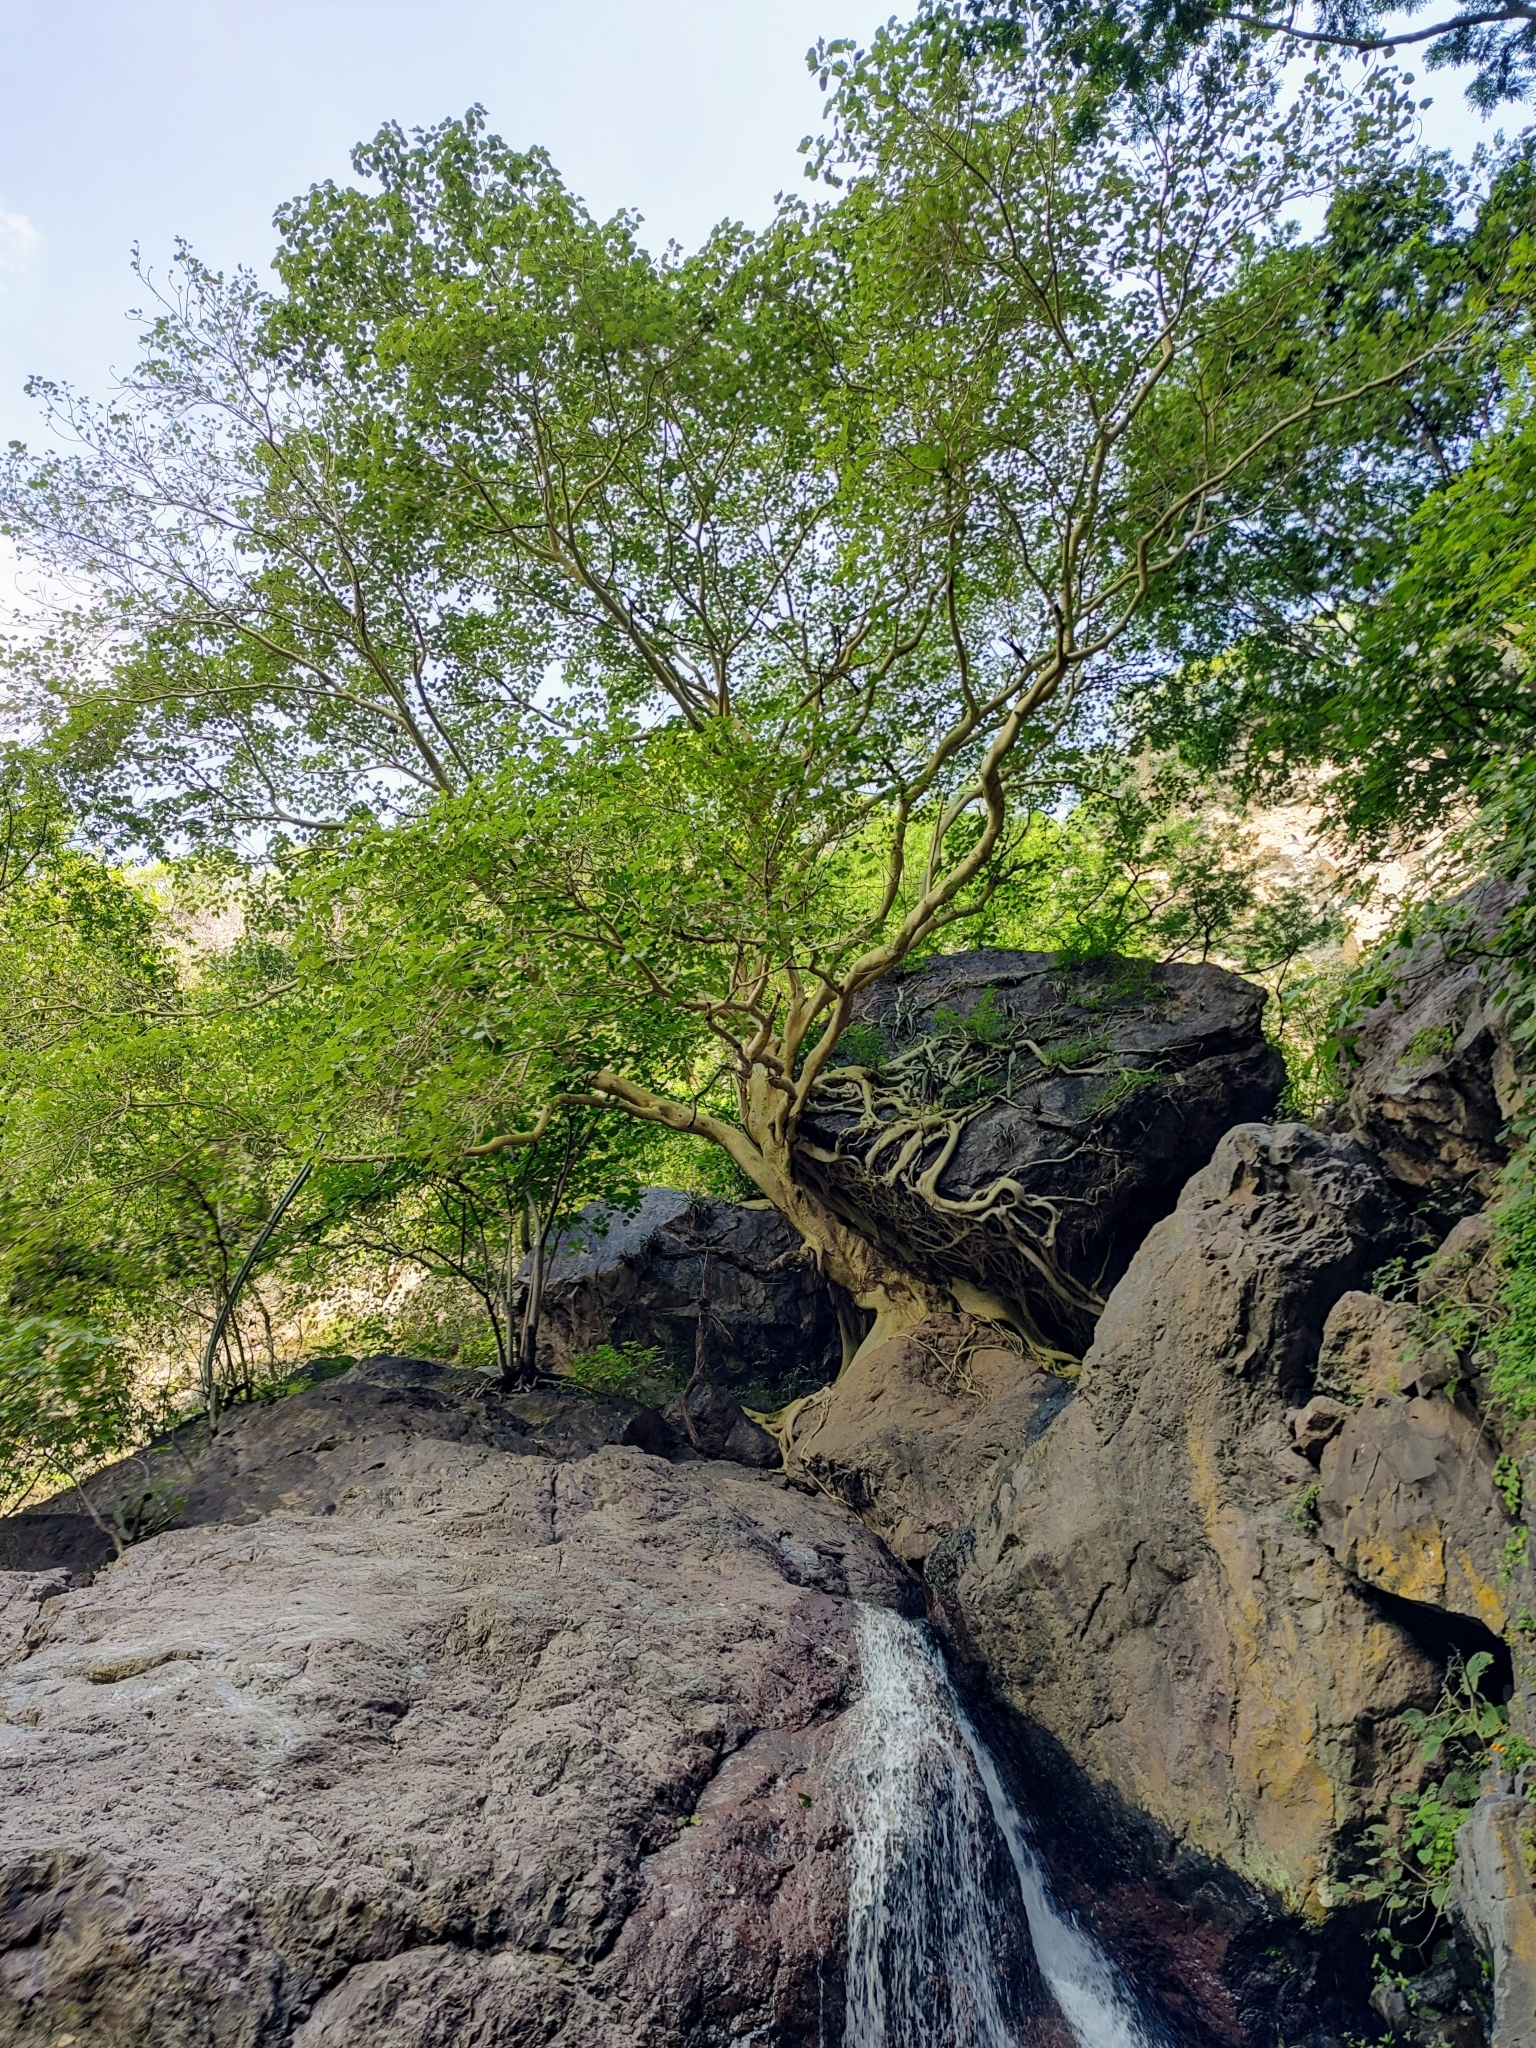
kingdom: Plantae
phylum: Tracheophyta
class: Magnoliopsida
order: Rosales
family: Moraceae
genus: Ficus
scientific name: Ficus petiolaris
